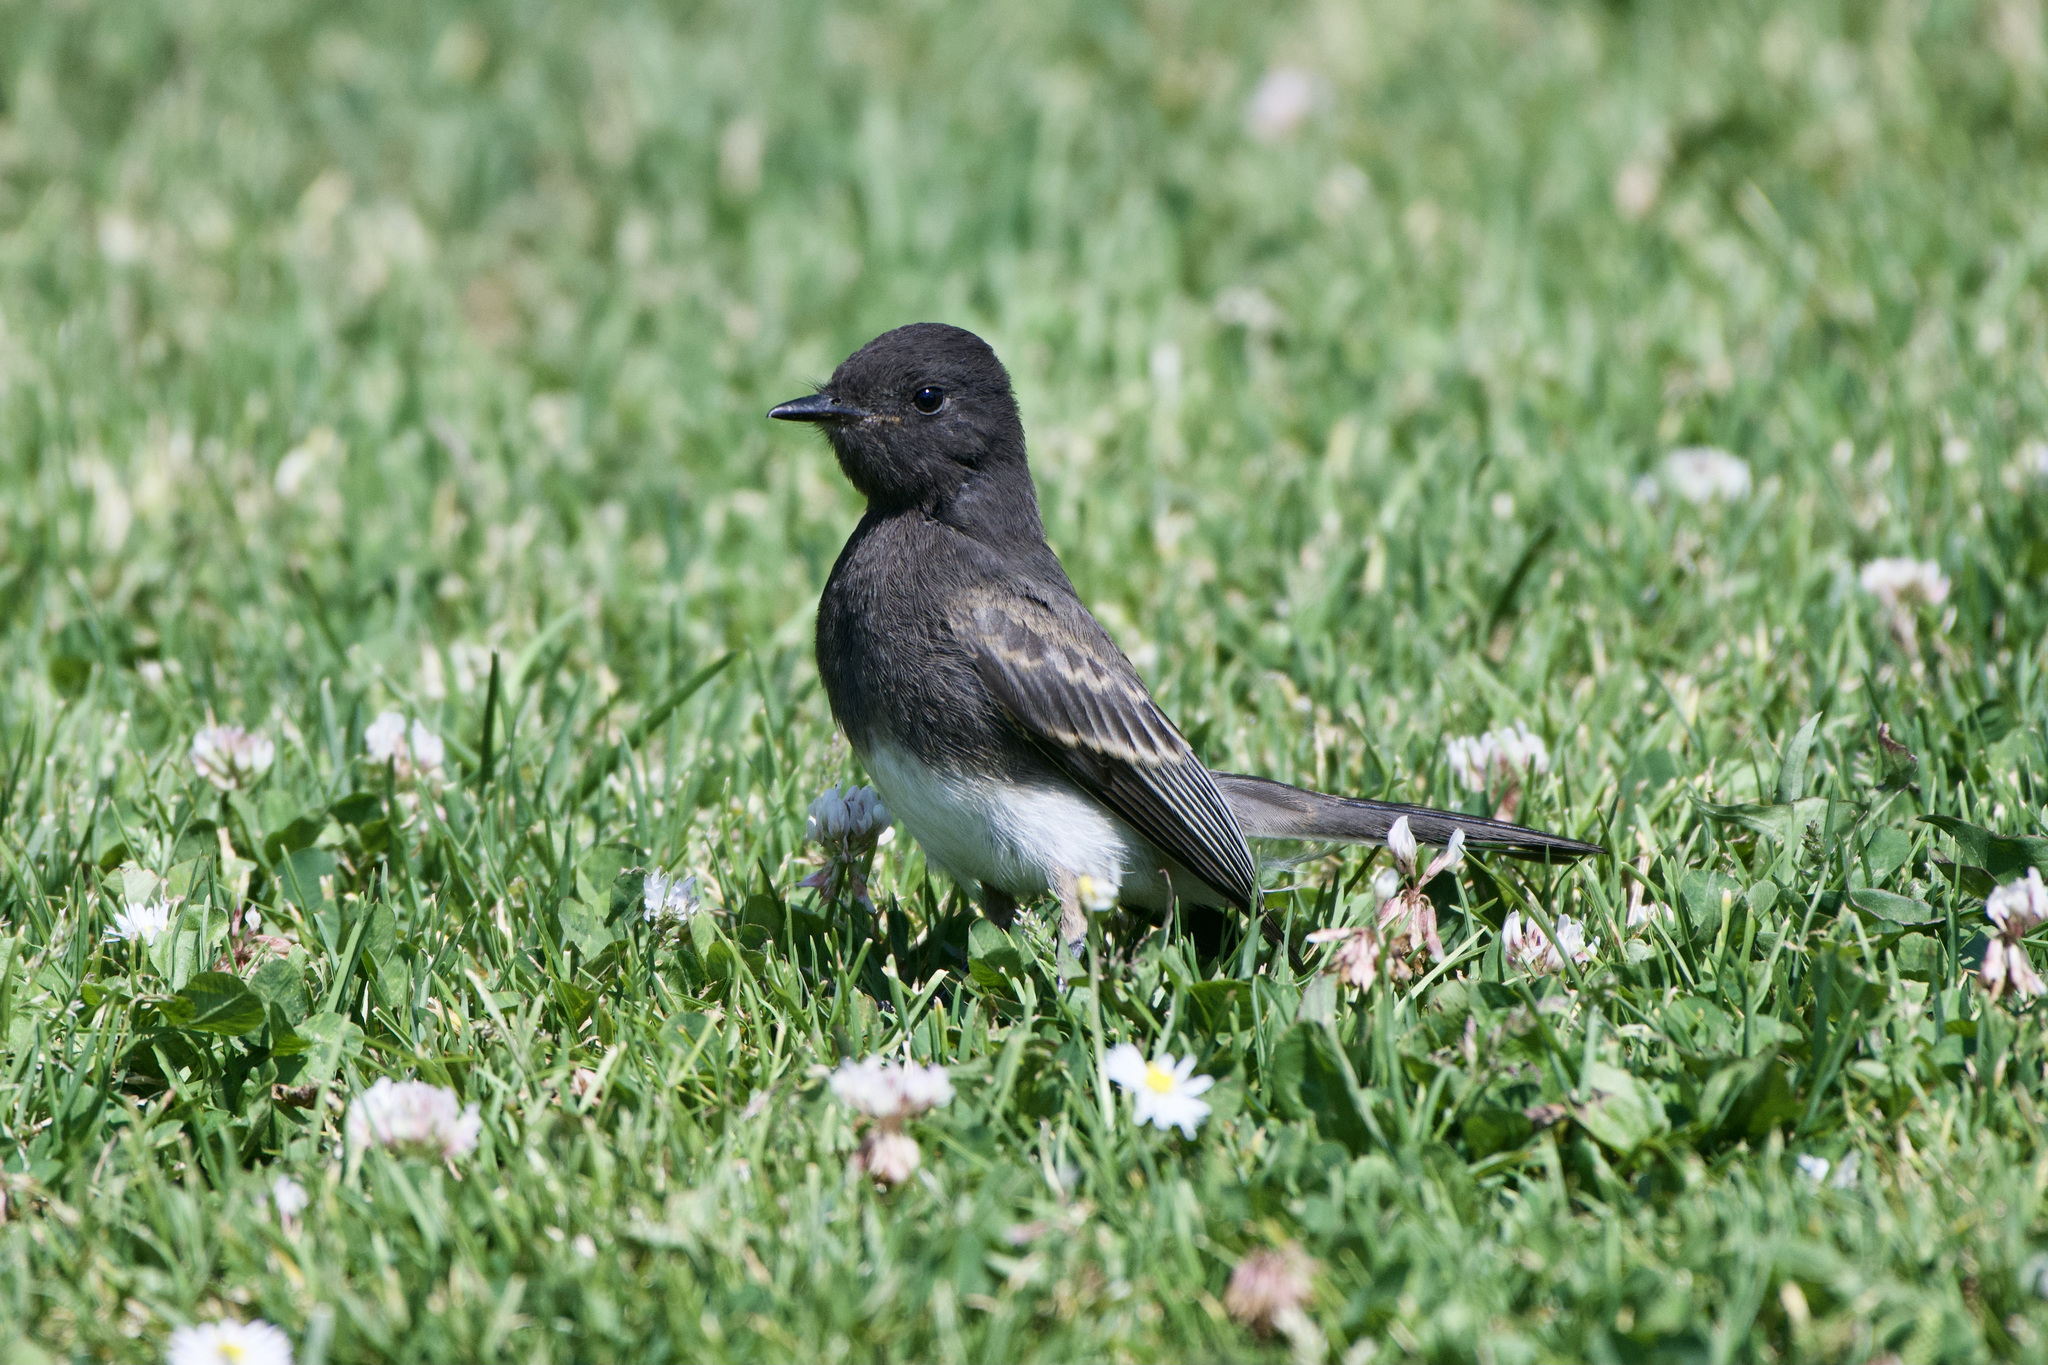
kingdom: Animalia
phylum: Chordata
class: Aves
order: Passeriformes
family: Tyrannidae
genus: Sayornis
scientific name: Sayornis nigricans
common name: Black phoebe
